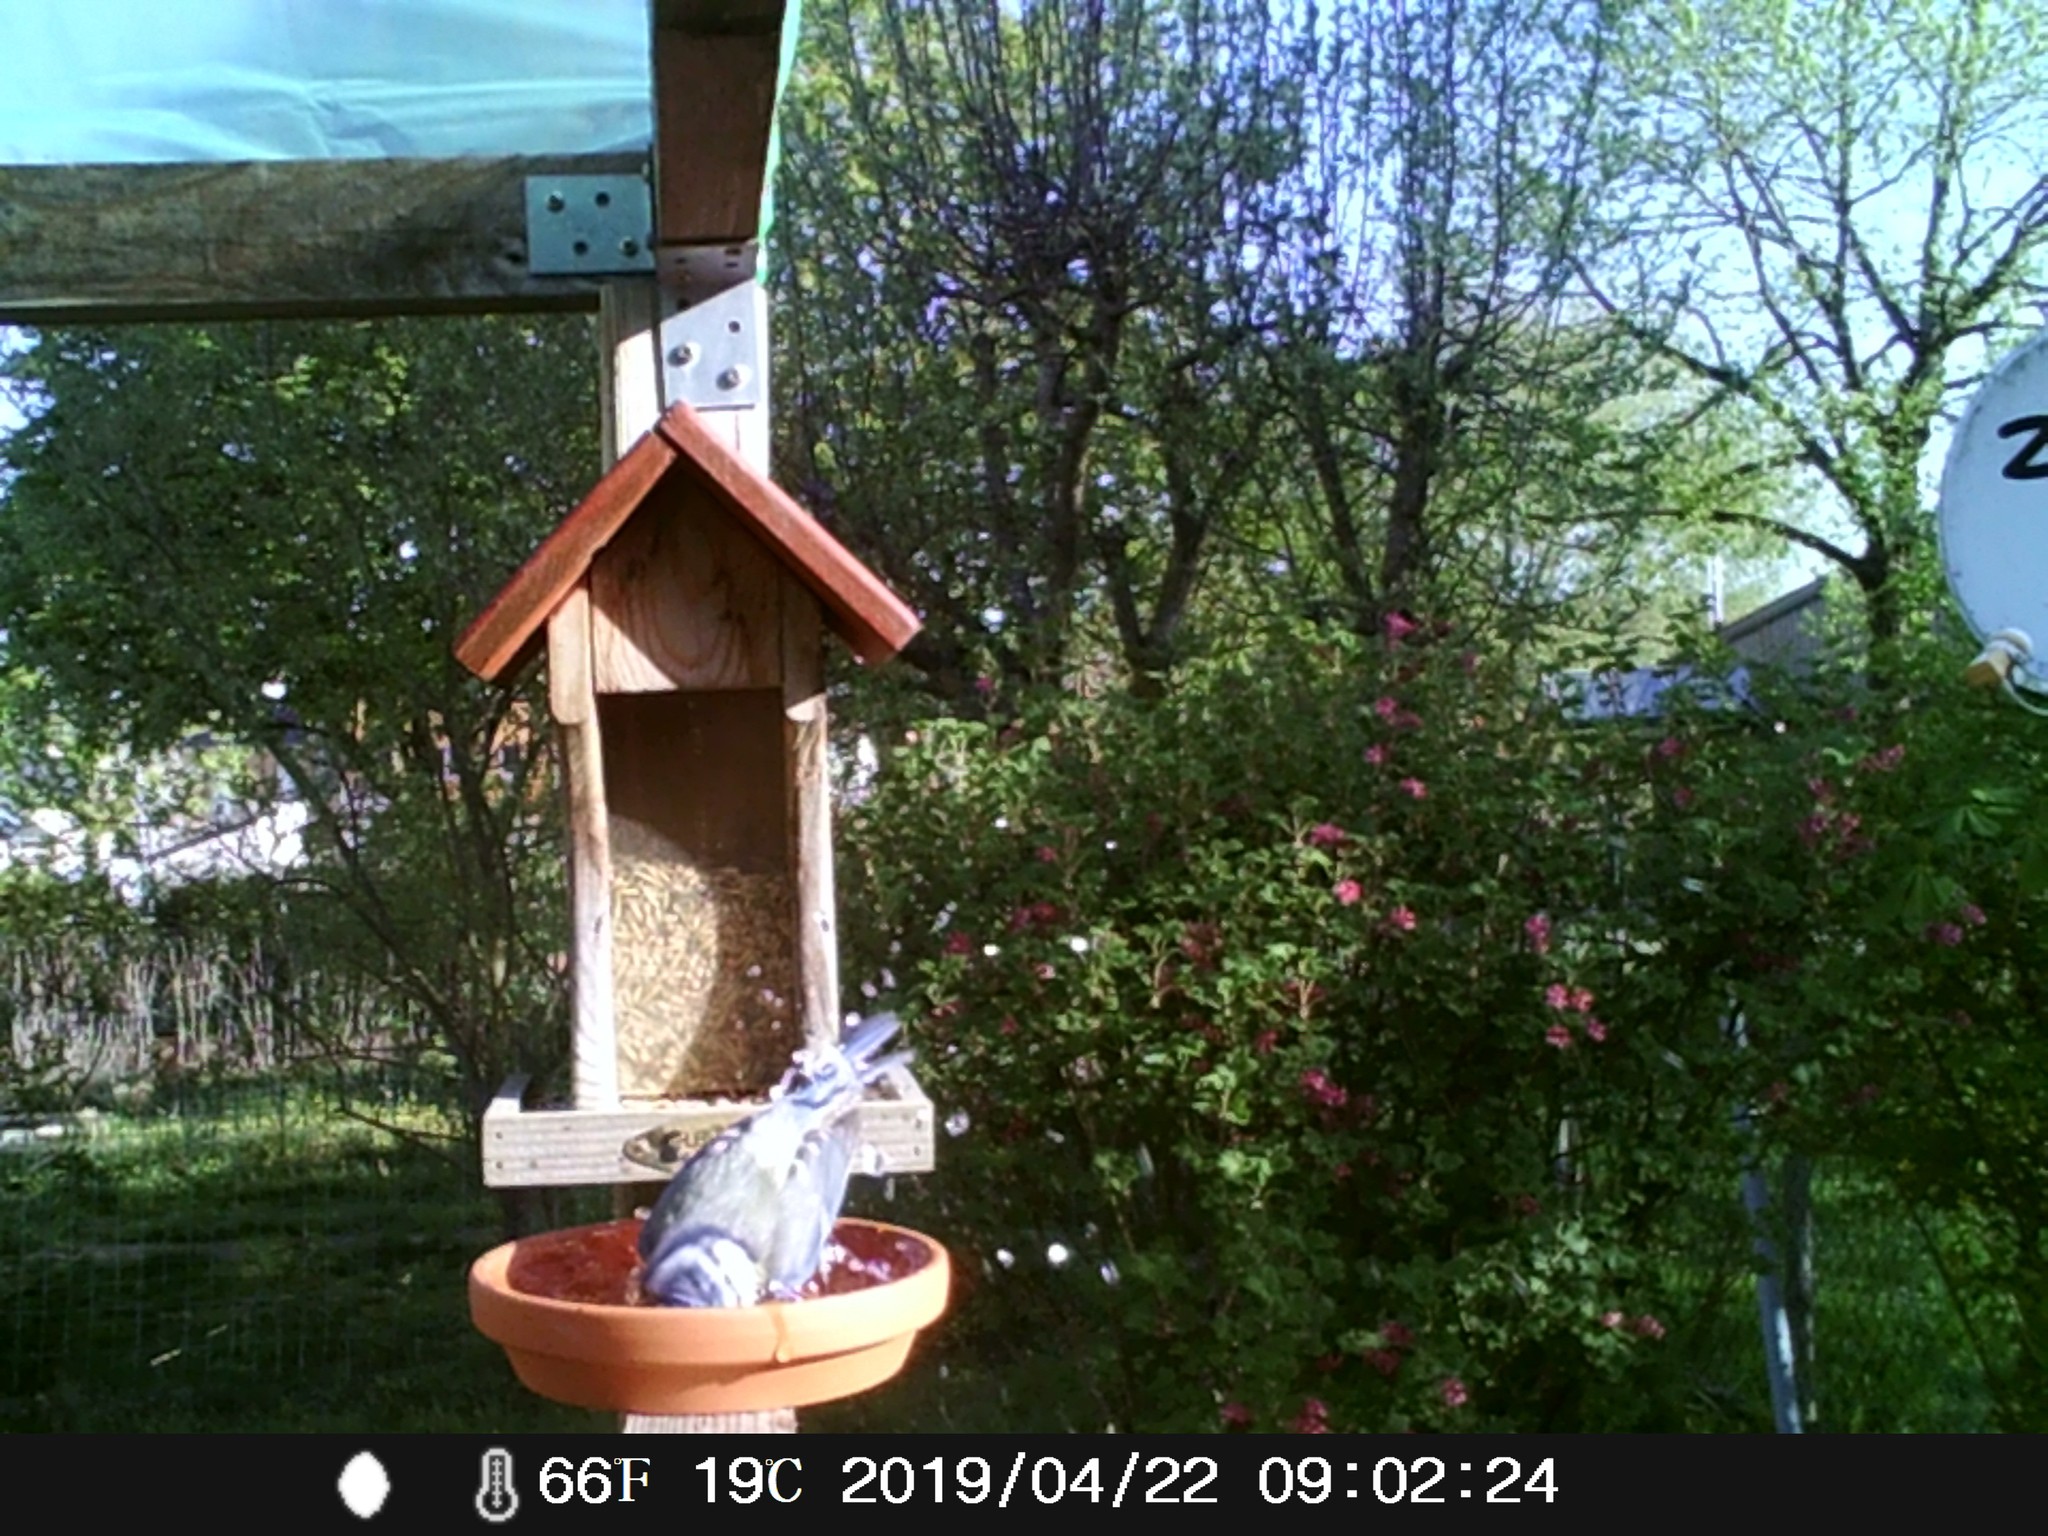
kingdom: Animalia
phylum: Chordata
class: Aves
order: Passeriformes
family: Paridae
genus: Cyanistes
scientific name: Cyanistes caeruleus
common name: Eurasian blue tit
